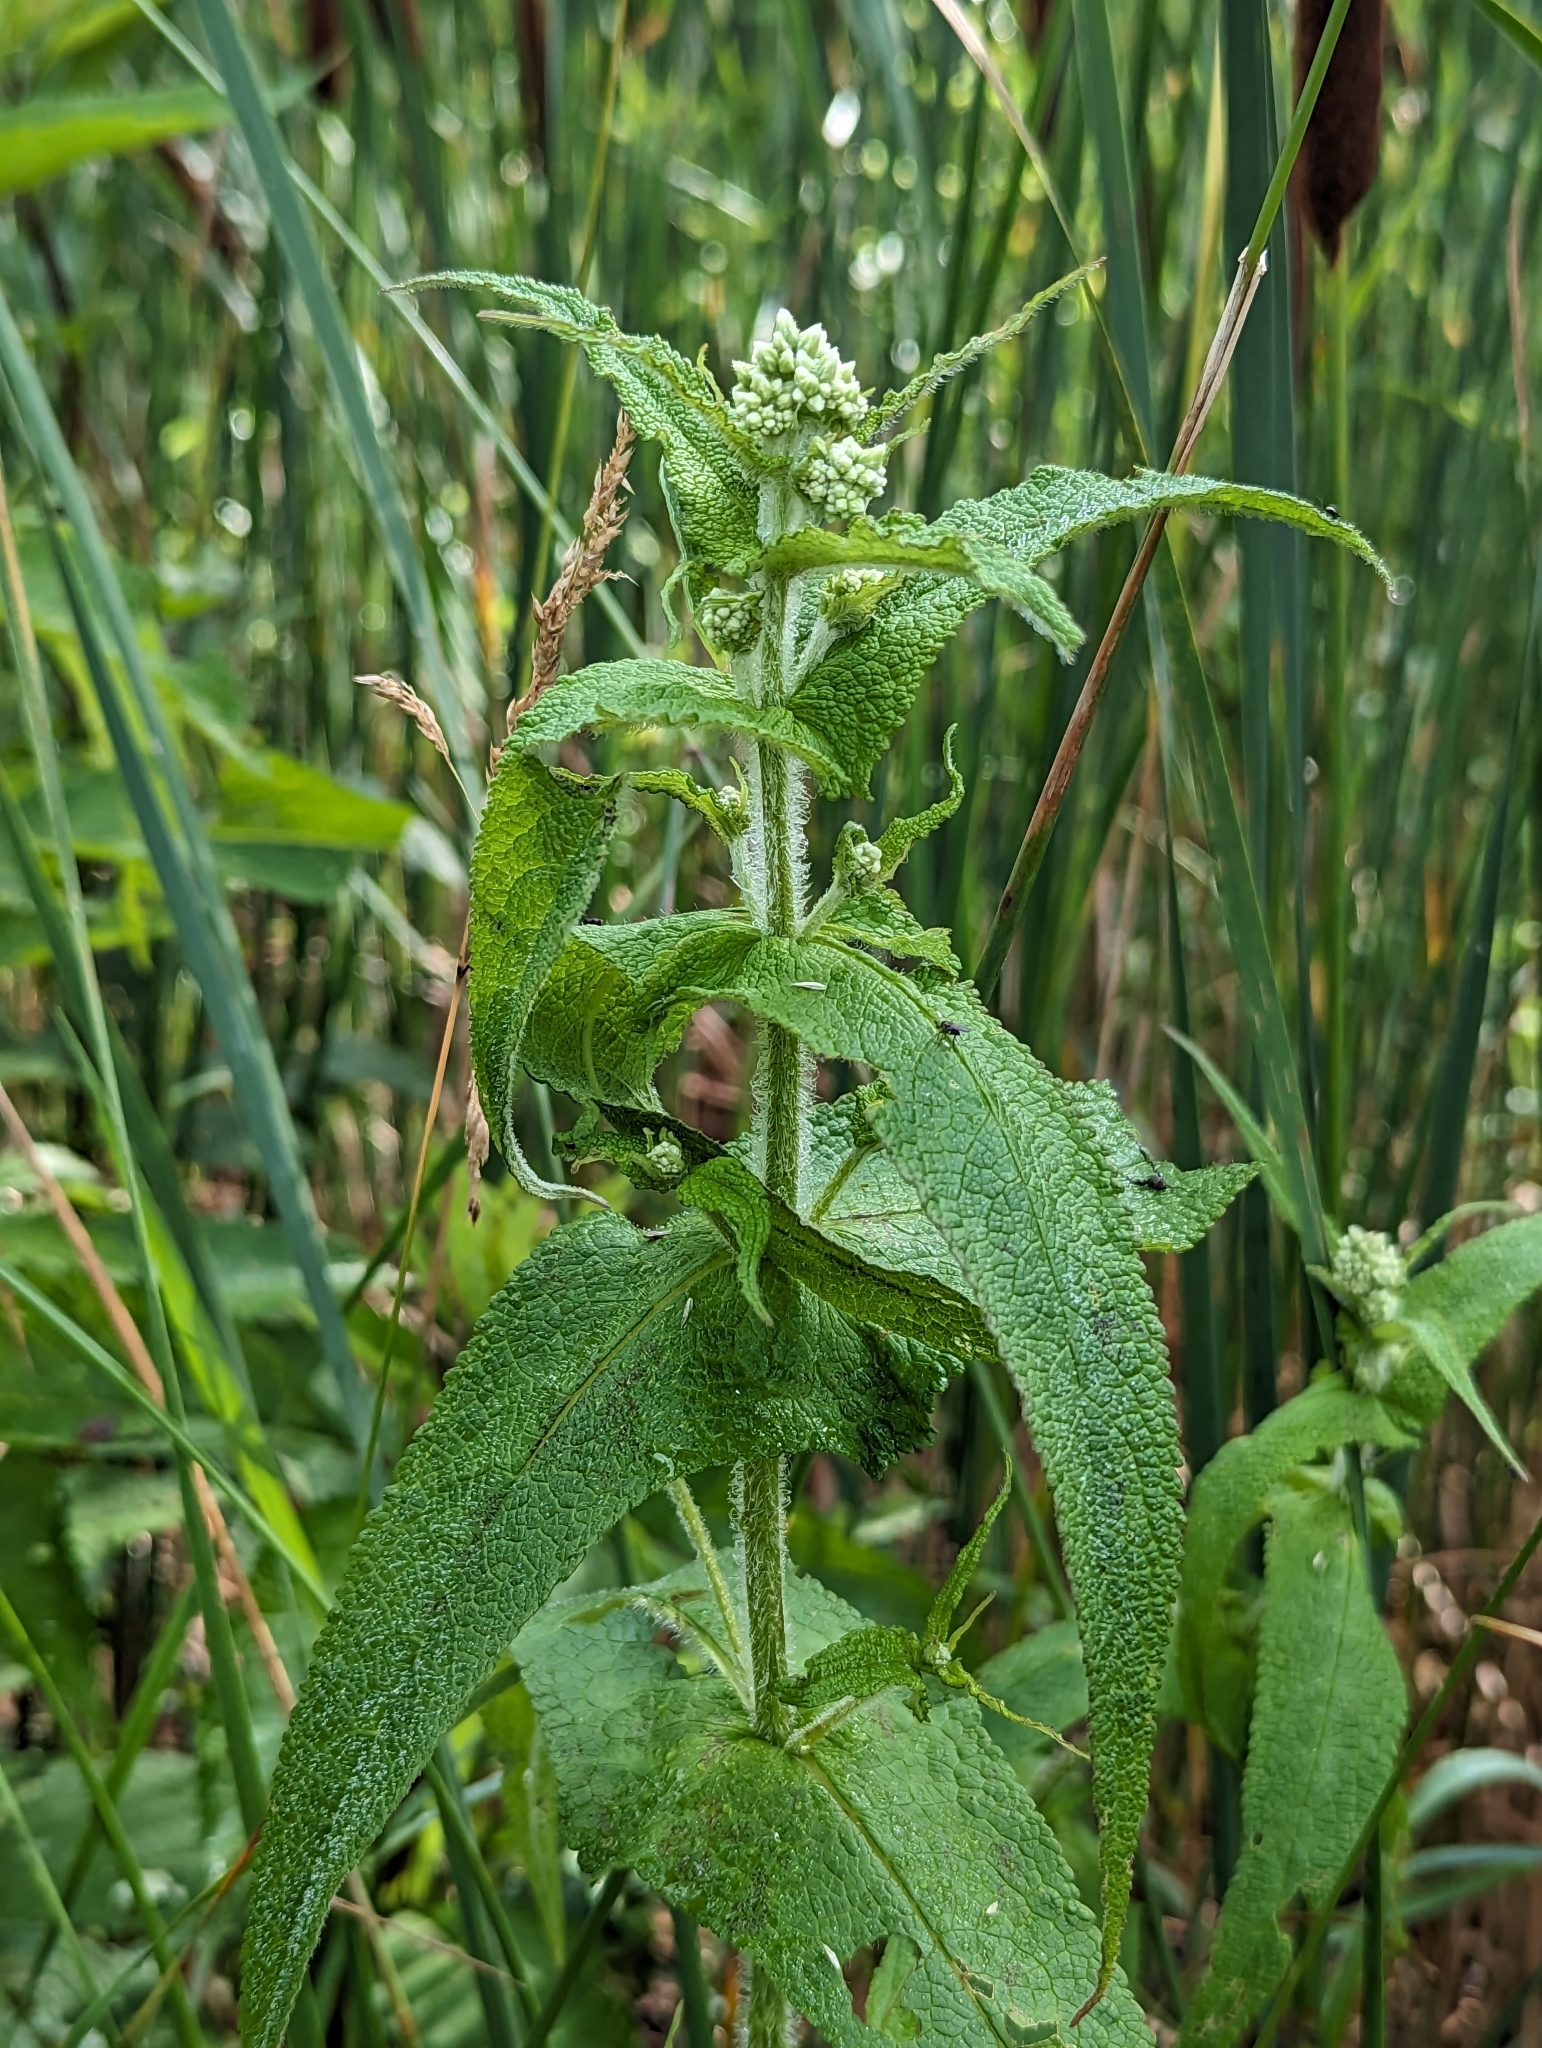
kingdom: Plantae
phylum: Tracheophyta
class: Magnoliopsida
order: Asterales
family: Asteraceae
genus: Eupatorium
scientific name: Eupatorium perfoliatum
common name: Boneset
